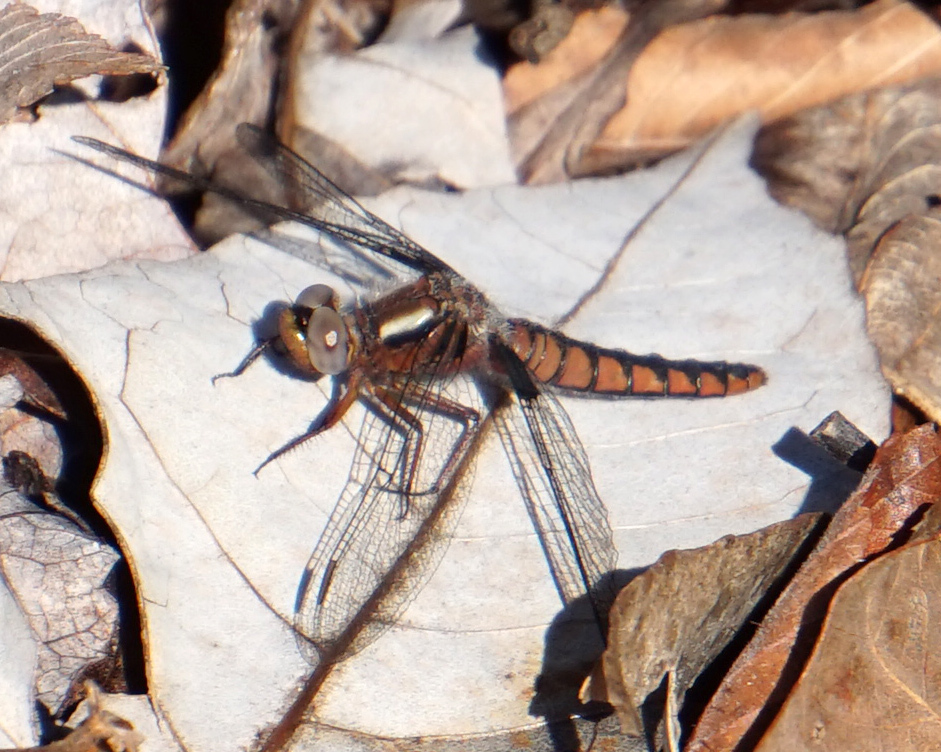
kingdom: Animalia
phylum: Arthropoda
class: Insecta
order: Odonata
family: Libellulidae
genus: Ladona
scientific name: Ladona deplanata
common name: Blue corporal
